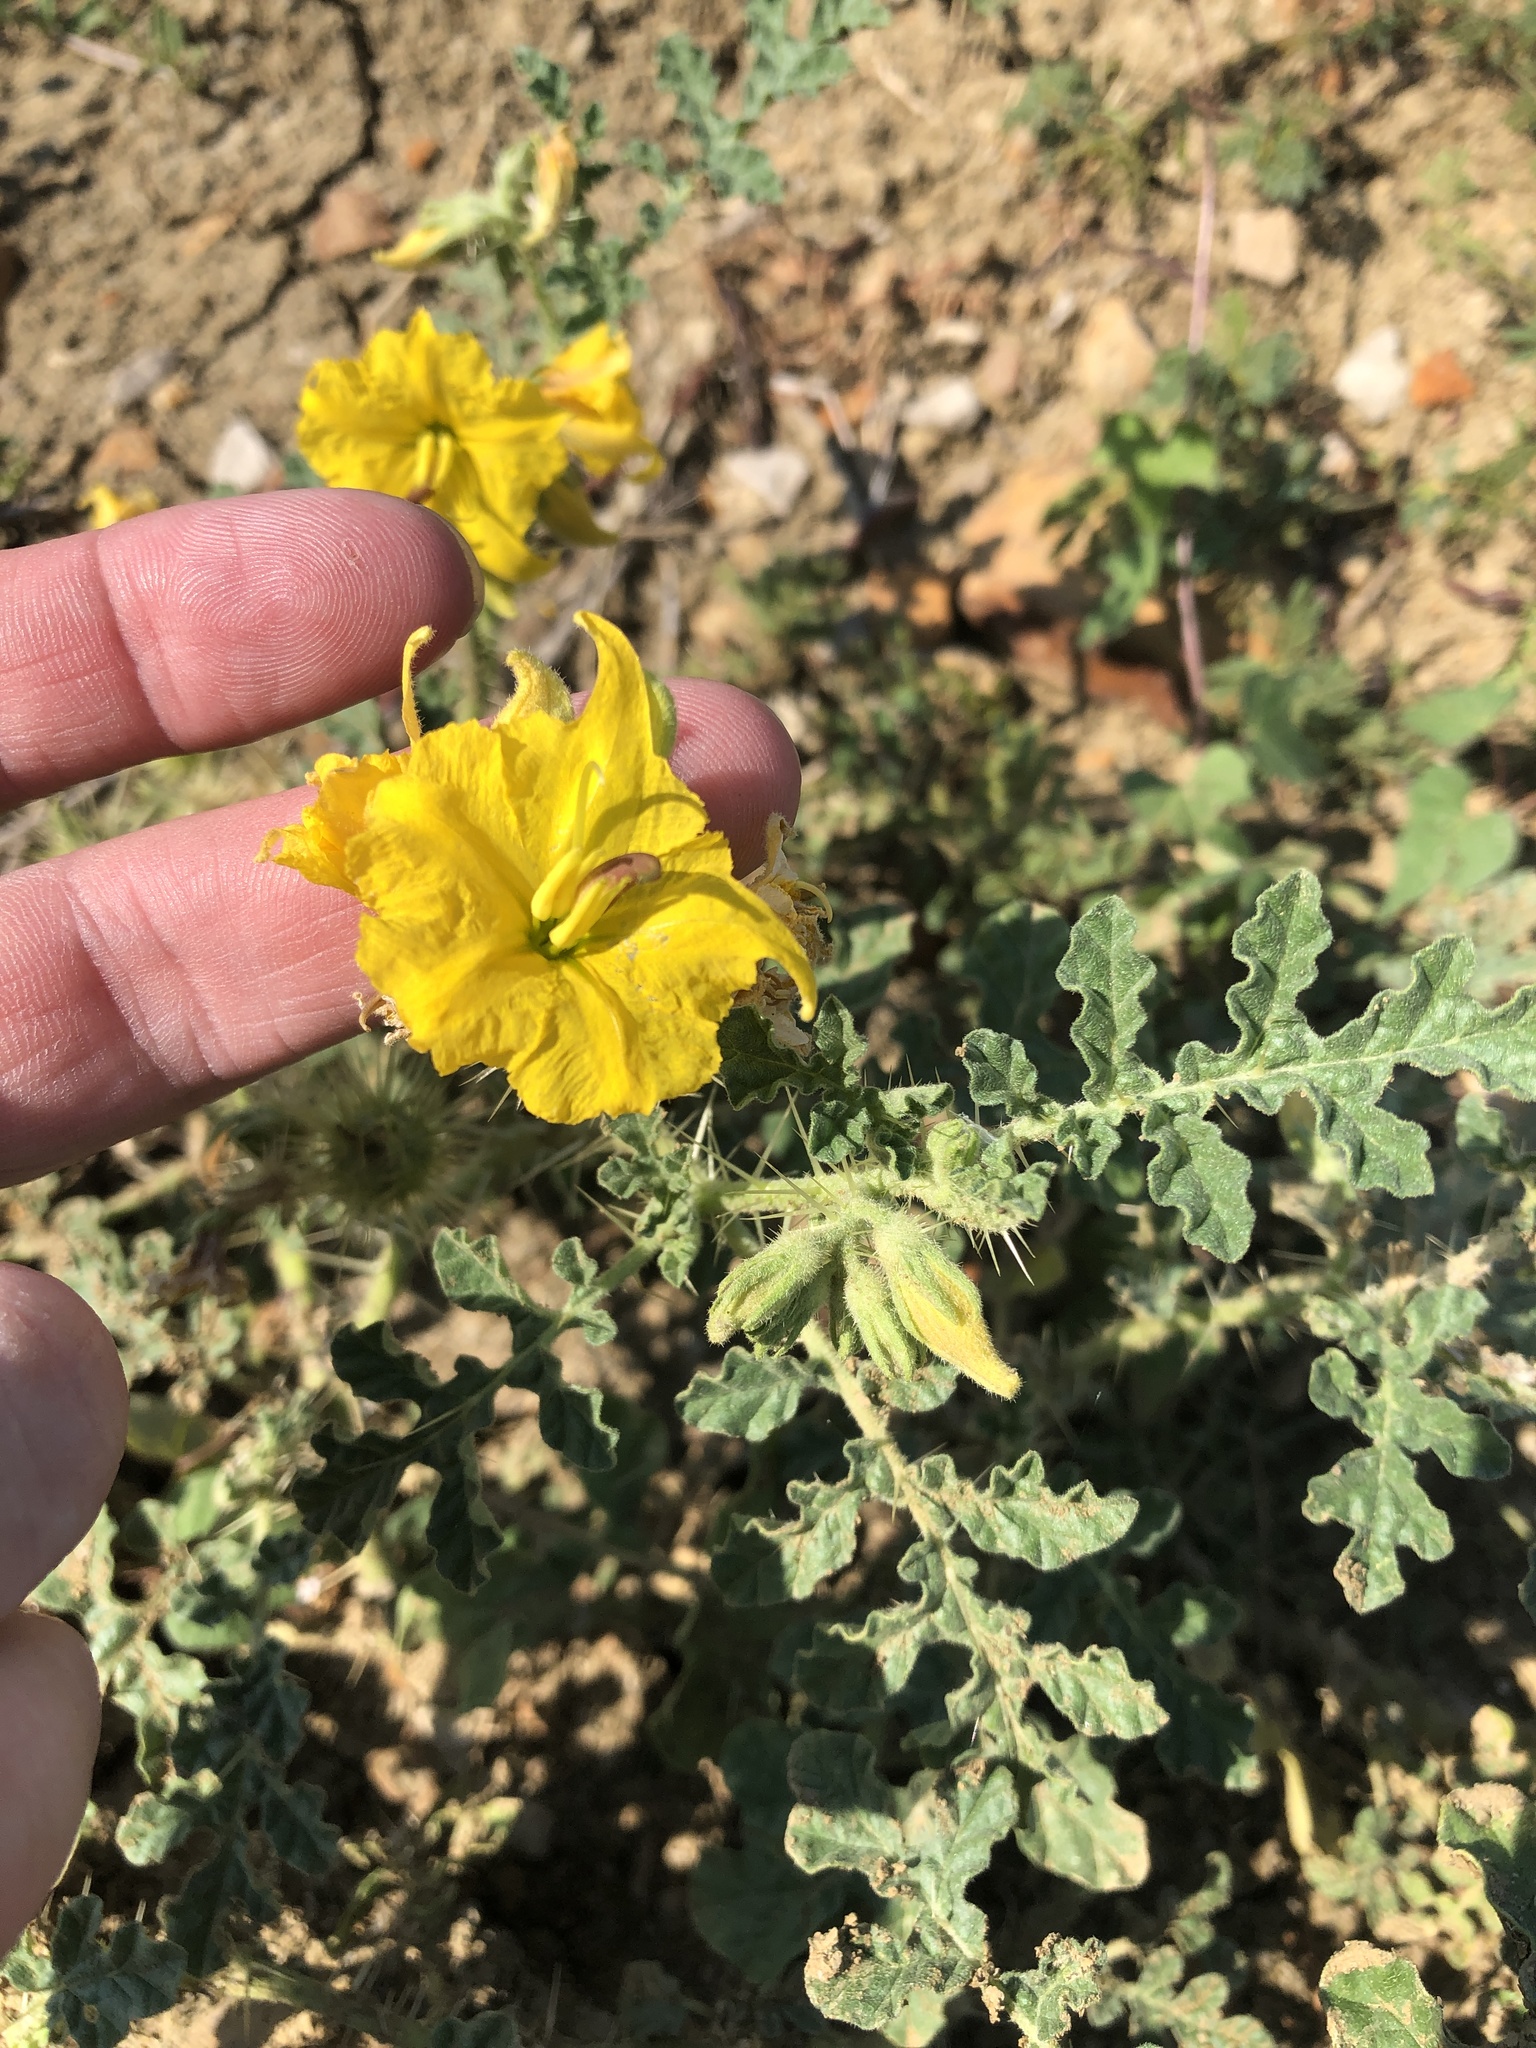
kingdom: Plantae
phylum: Tracheophyta
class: Magnoliopsida
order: Solanales
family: Solanaceae
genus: Solanum
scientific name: Solanum angustifolium
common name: Buffalobur nightshade
